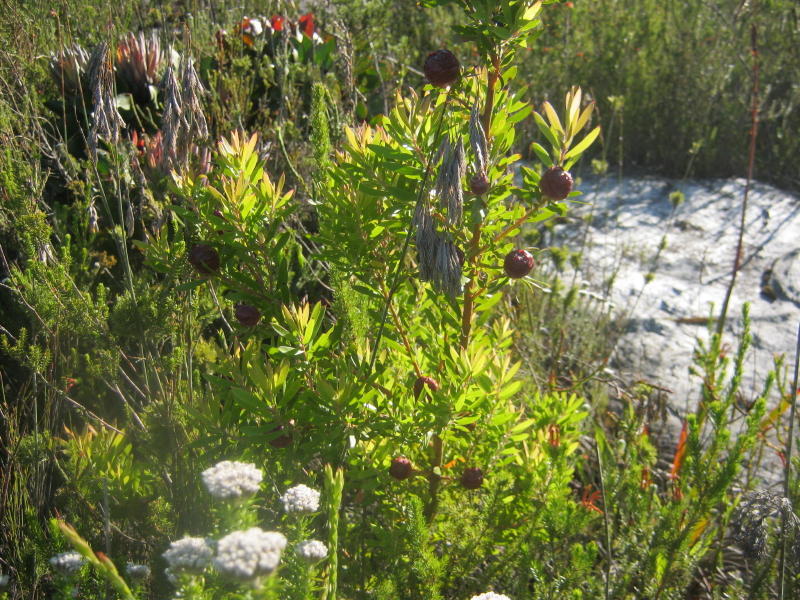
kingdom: Plantae
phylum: Tracheophyta
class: Magnoliopsida
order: Proteales
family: Proteaceae
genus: Leucadendron
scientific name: Leucadendron conicum
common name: Garden route conebush
